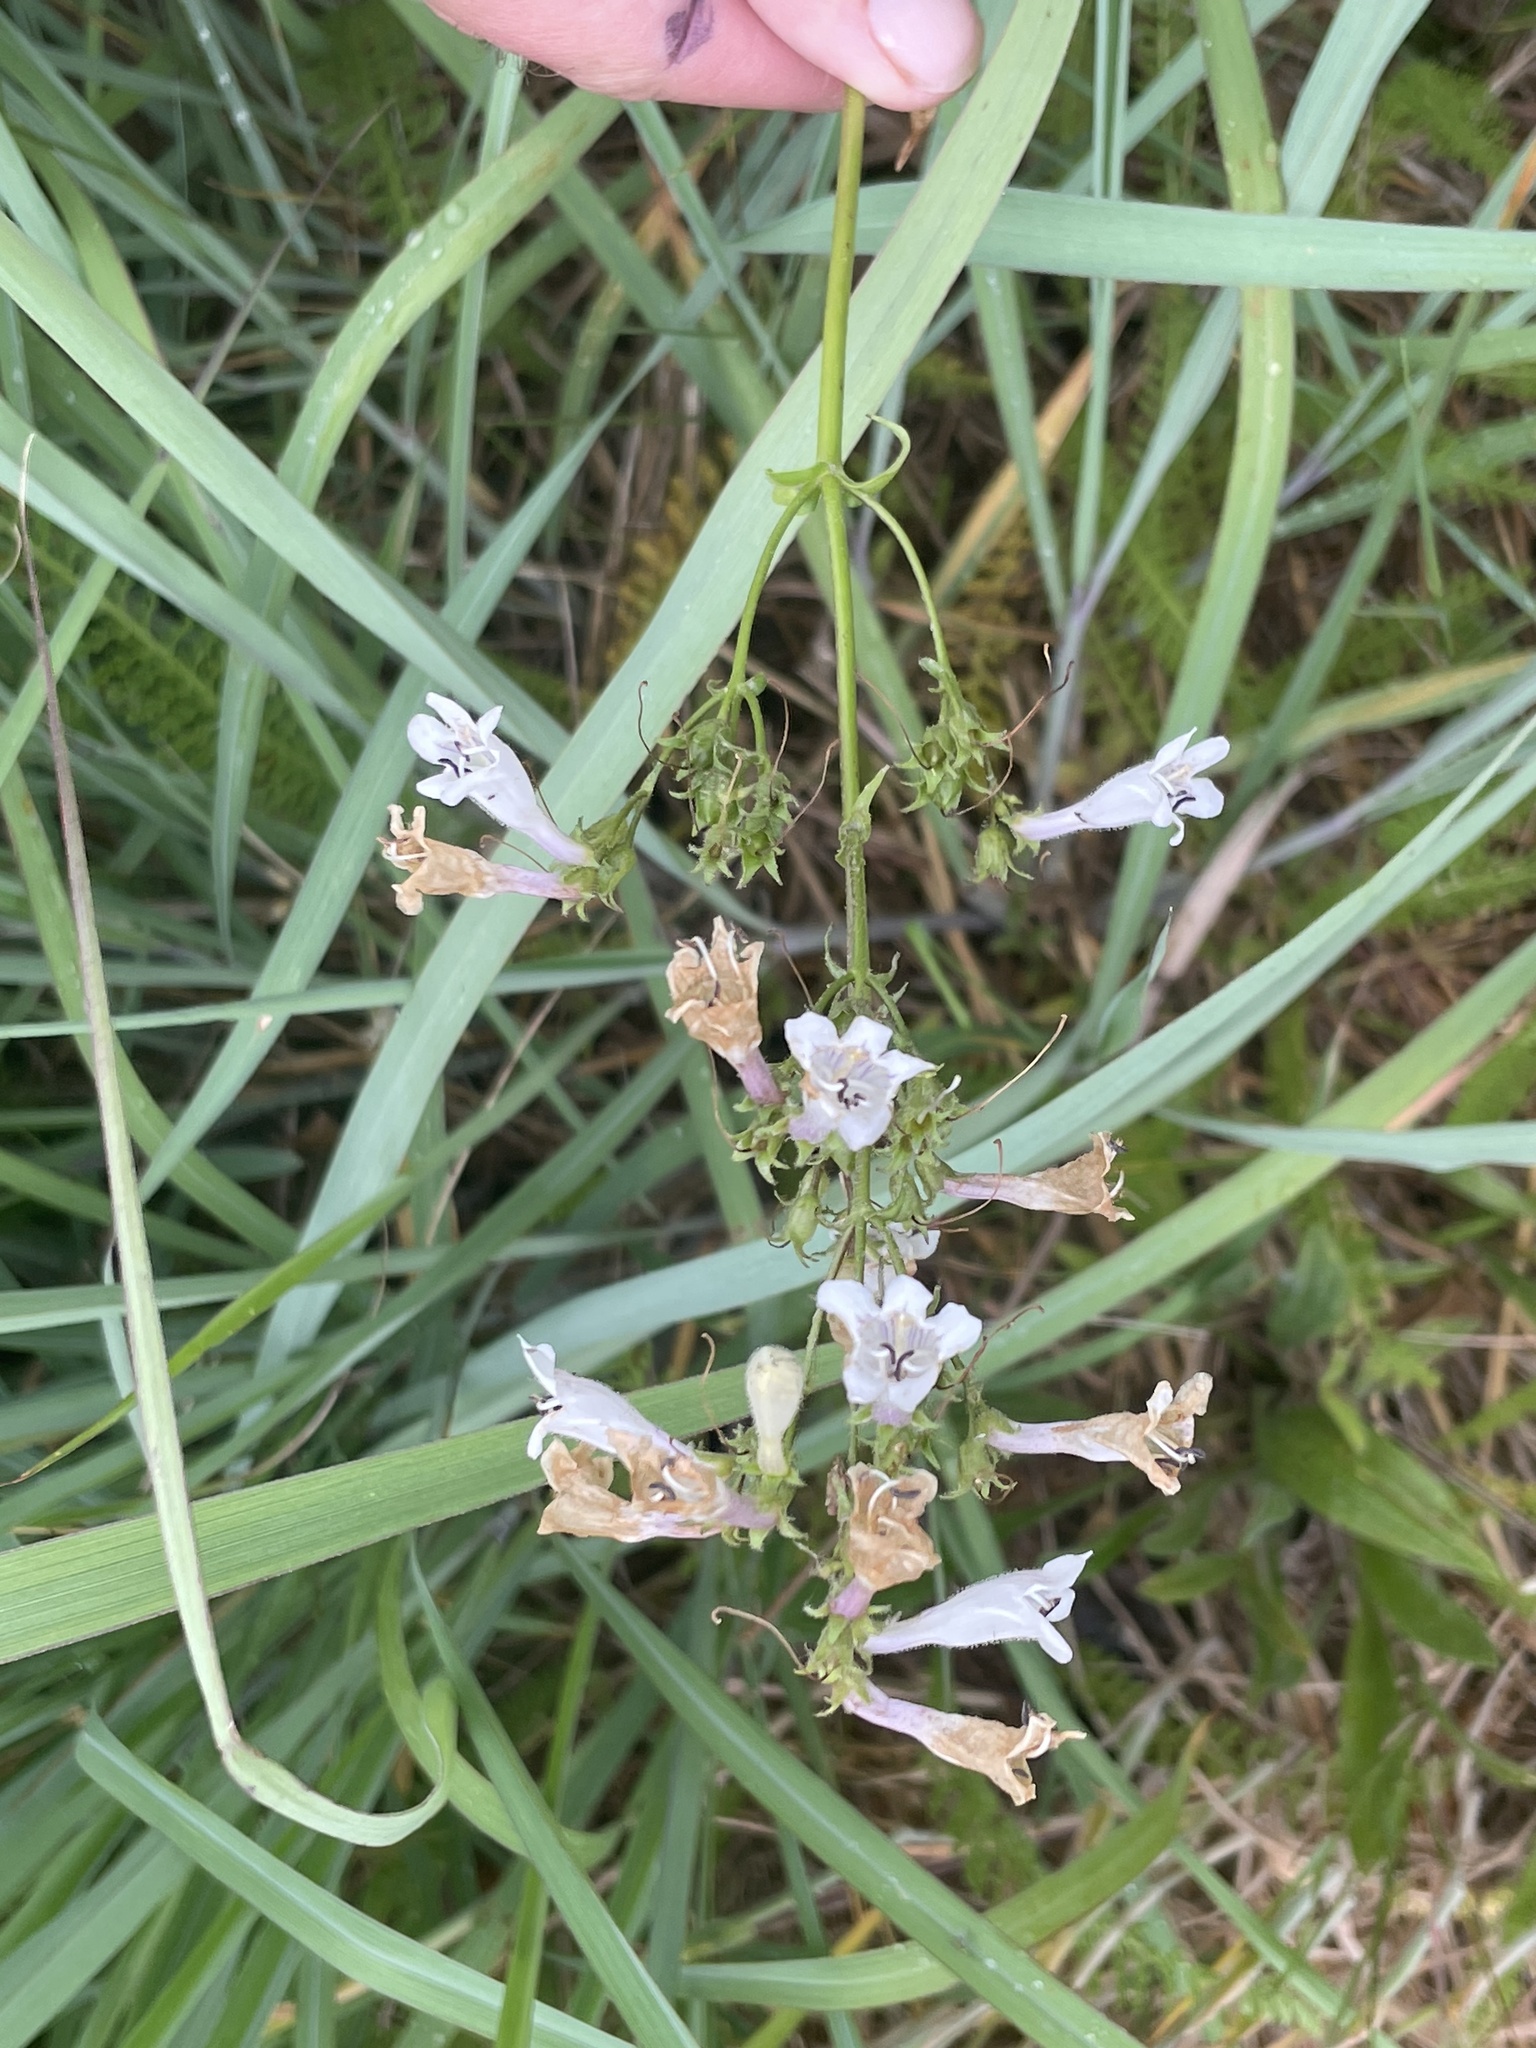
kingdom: Plantae
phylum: Tracheophyta
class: Magnoliopsida
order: Lamiales
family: Plantaginaceae
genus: Penstemon
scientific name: Penstemon digitalis
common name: Foxglove beardtongue
